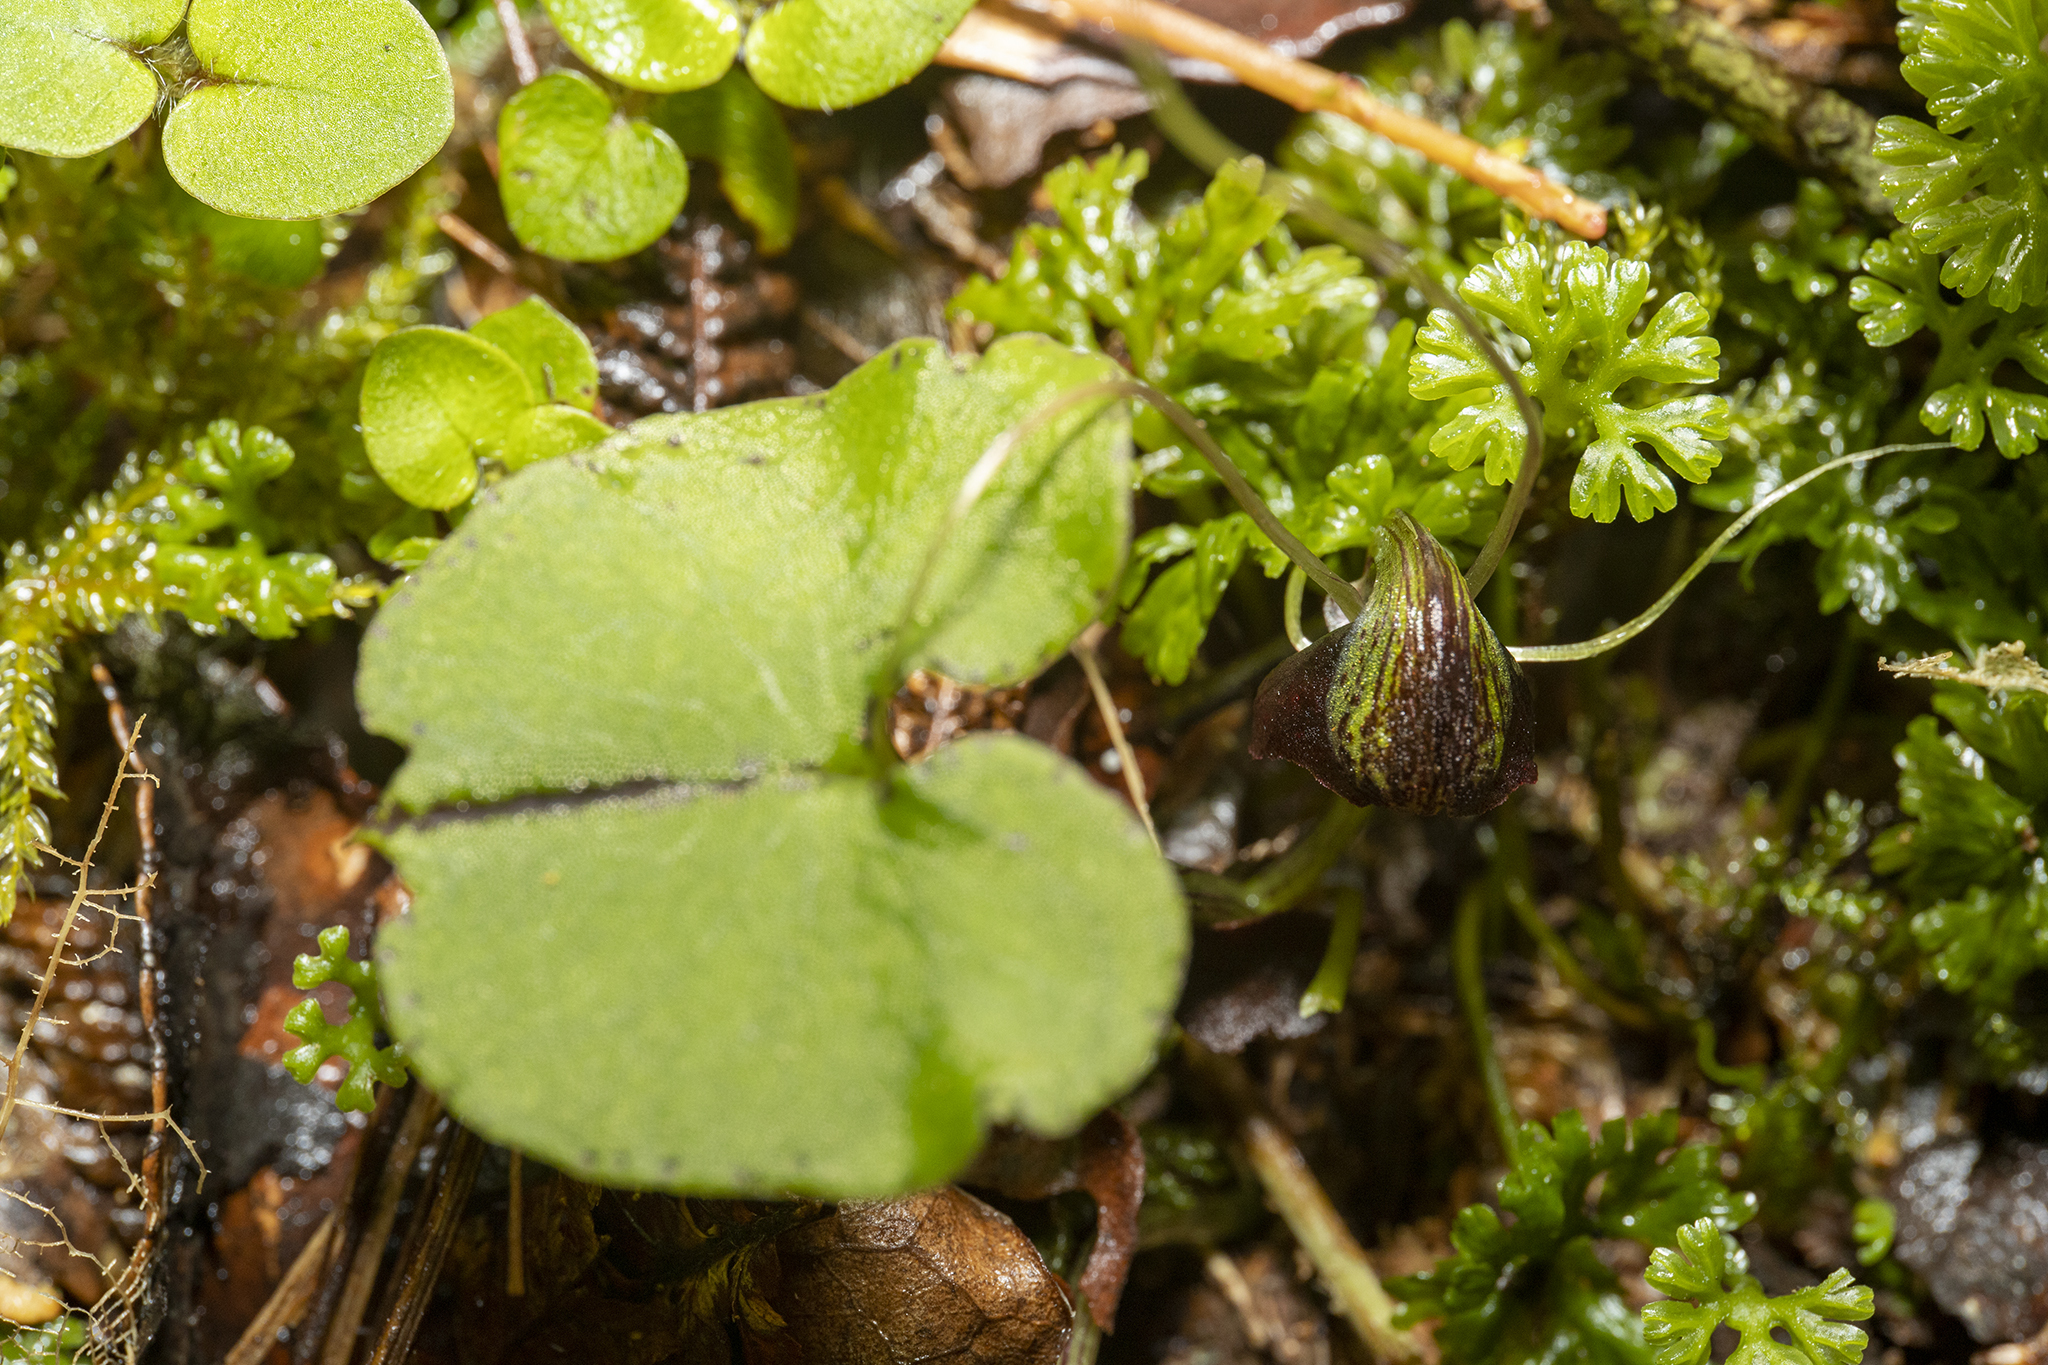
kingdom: Plantae
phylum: Tracheophyta
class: Liliopsida
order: Asparagales
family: Orchidaceae
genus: Corybas
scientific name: Corybas hypogaeus
